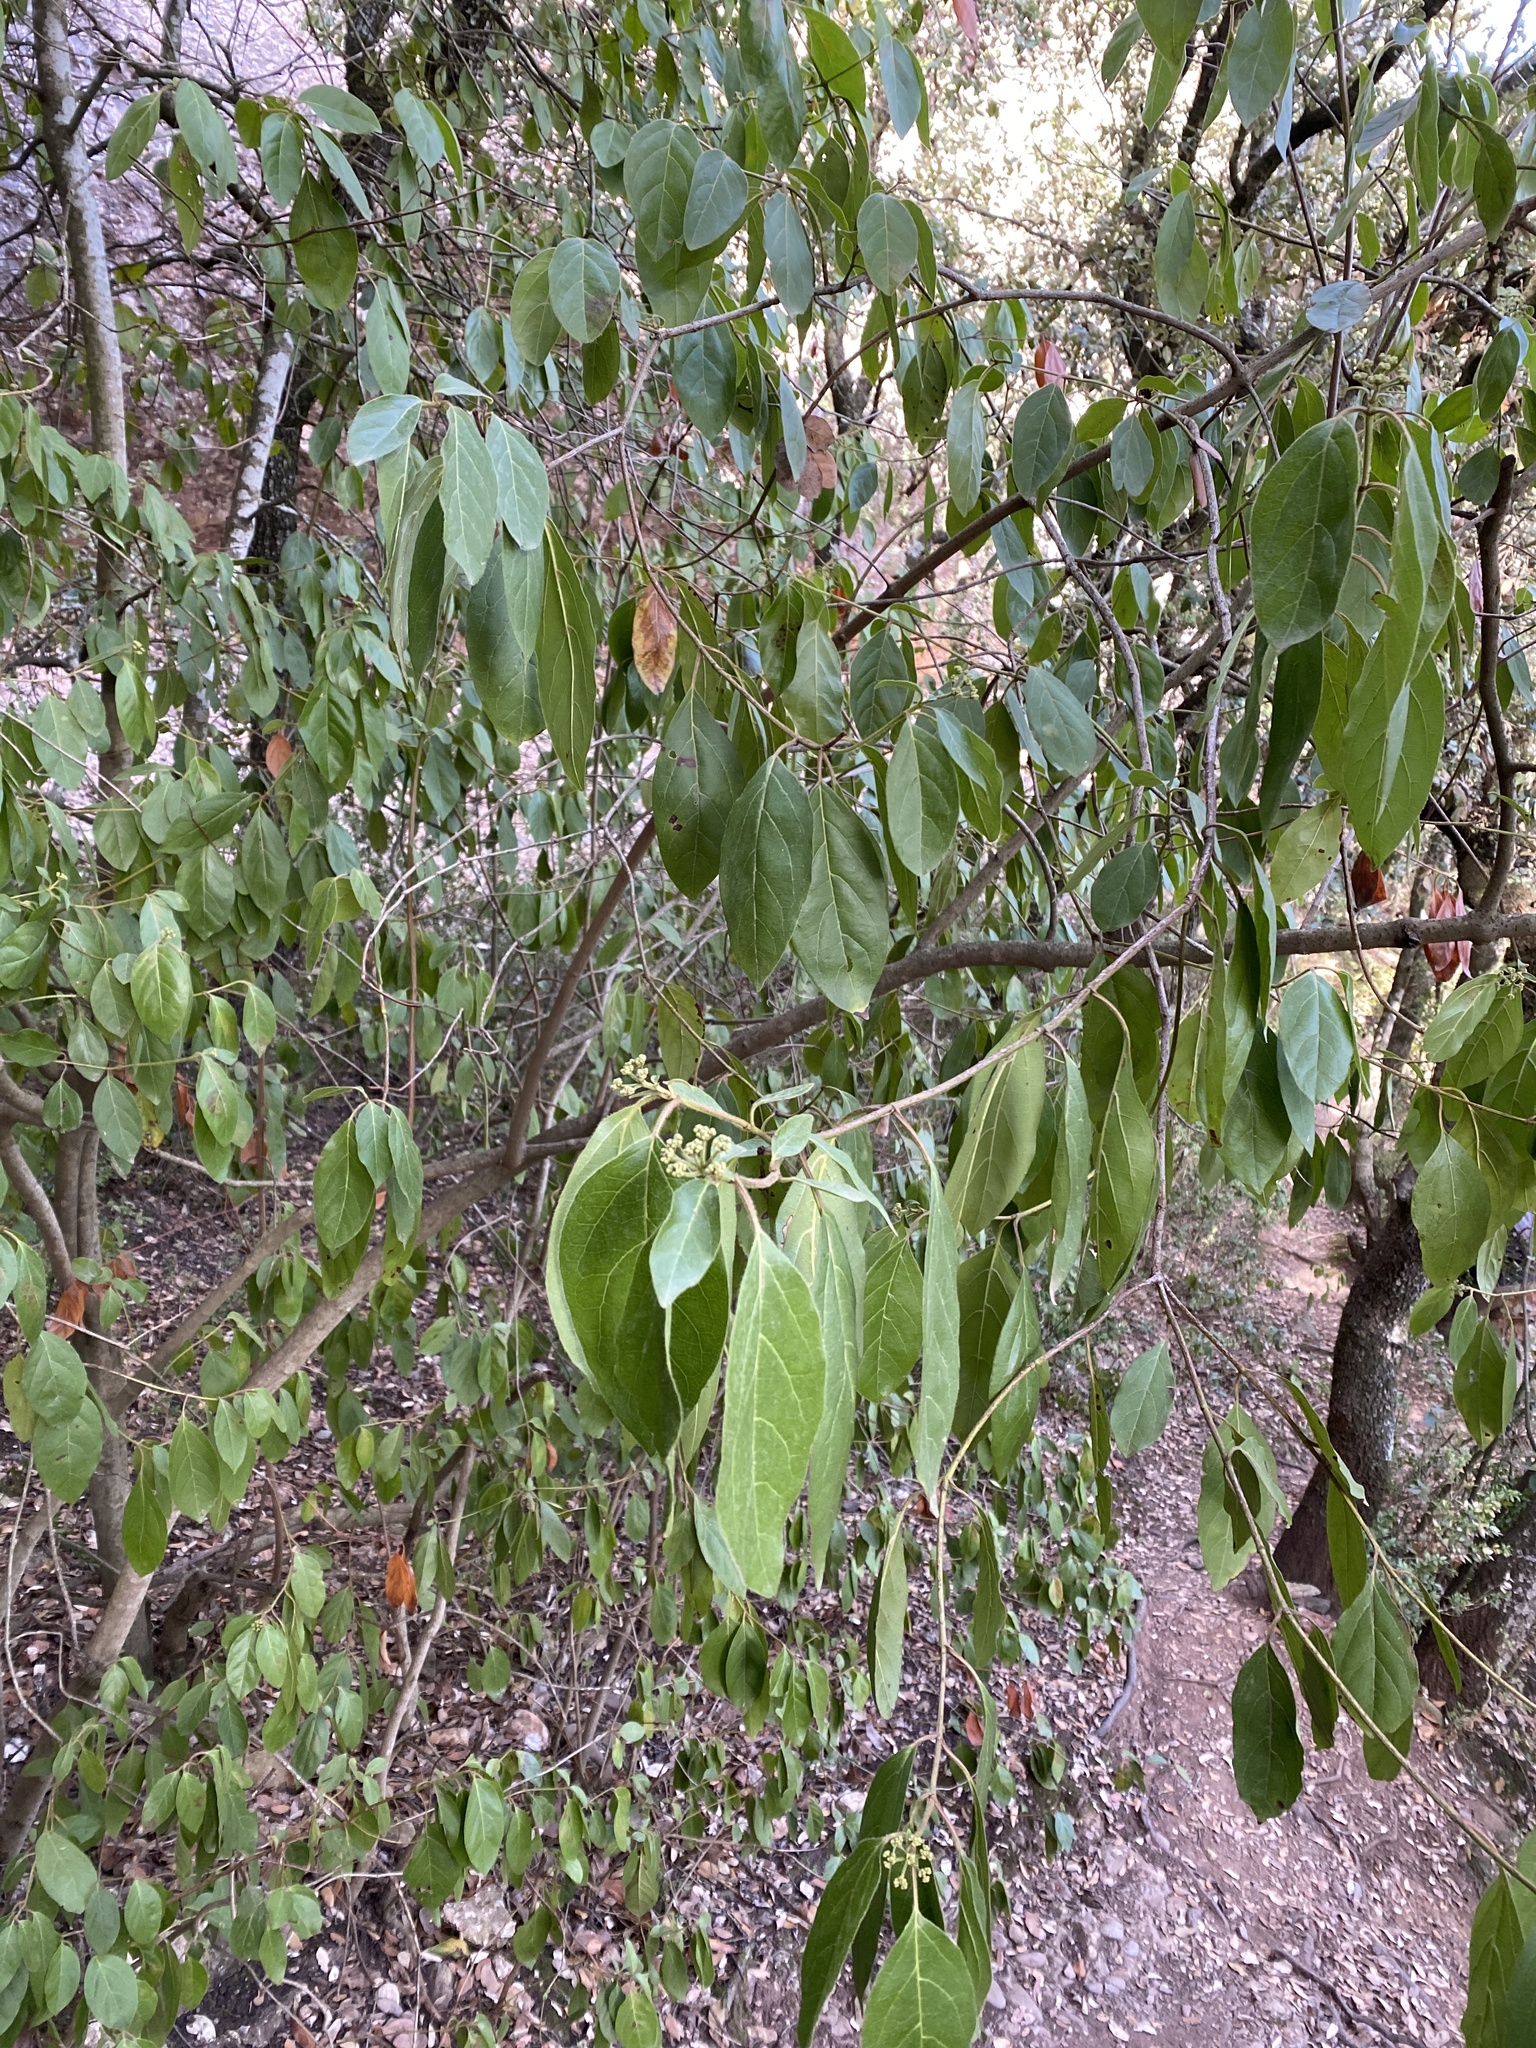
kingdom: Plantae
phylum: Tracheophyta
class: Magnoliopsida
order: Dipsacales
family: Viburnaceae
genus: Viburnum
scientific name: Viburnum tinus
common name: Laurustinus
